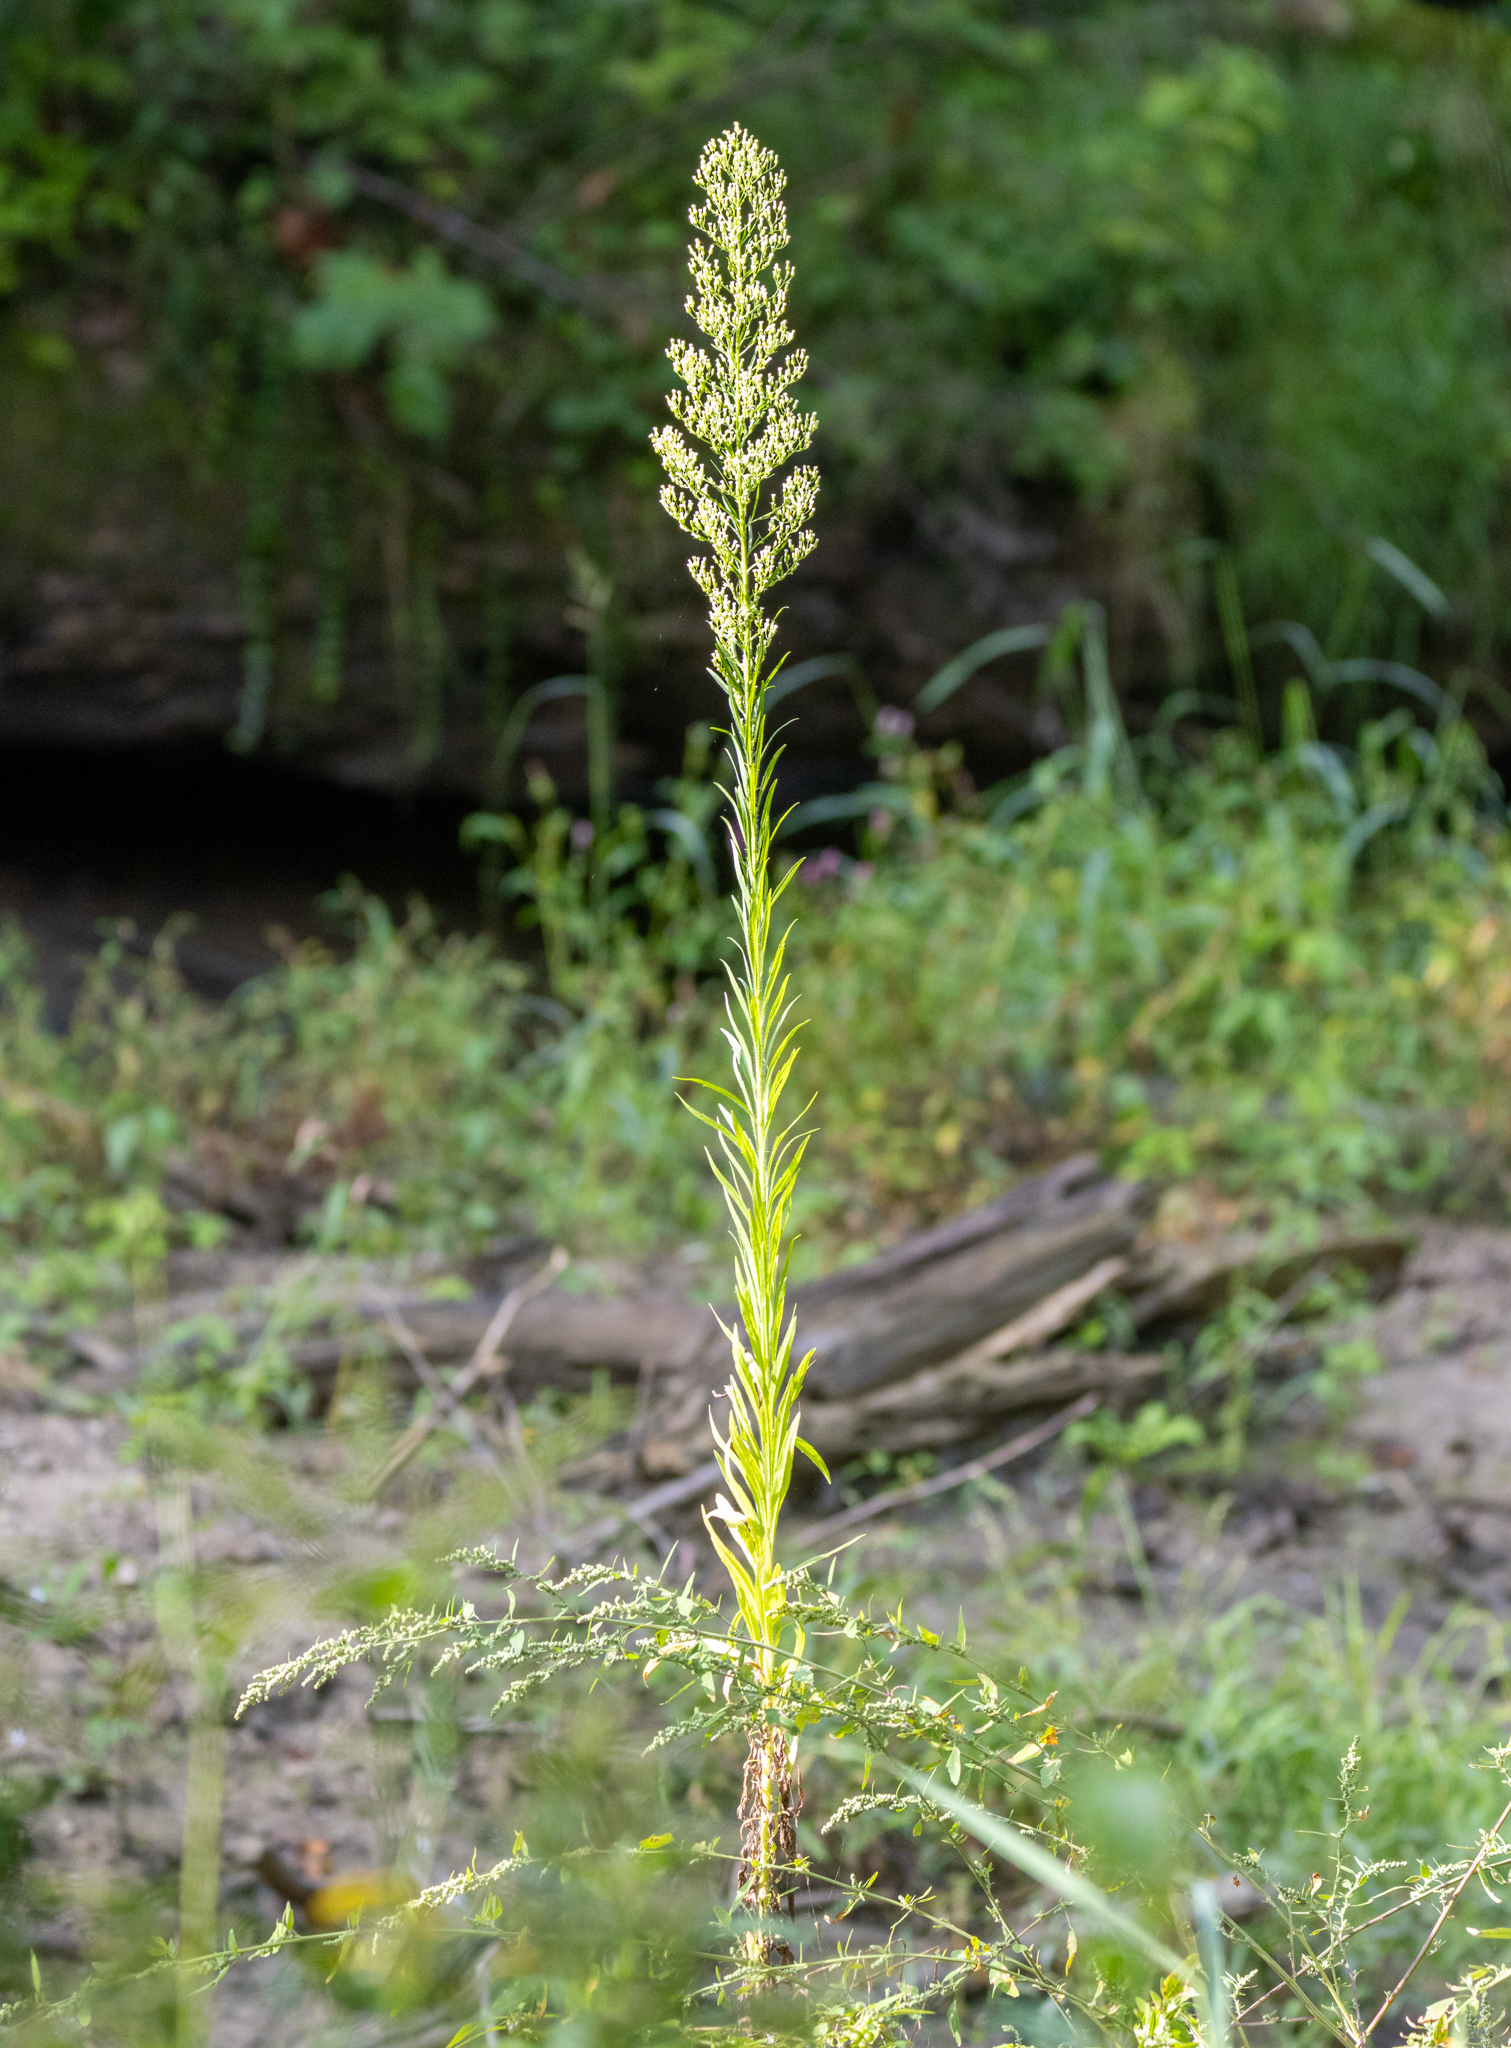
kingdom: Plantae
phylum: Tracheophyta
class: Magnoliopsida
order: Asterales
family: Asteraceae
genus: Erigeron
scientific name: Erigeron canadensis
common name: Canadian fleabane
